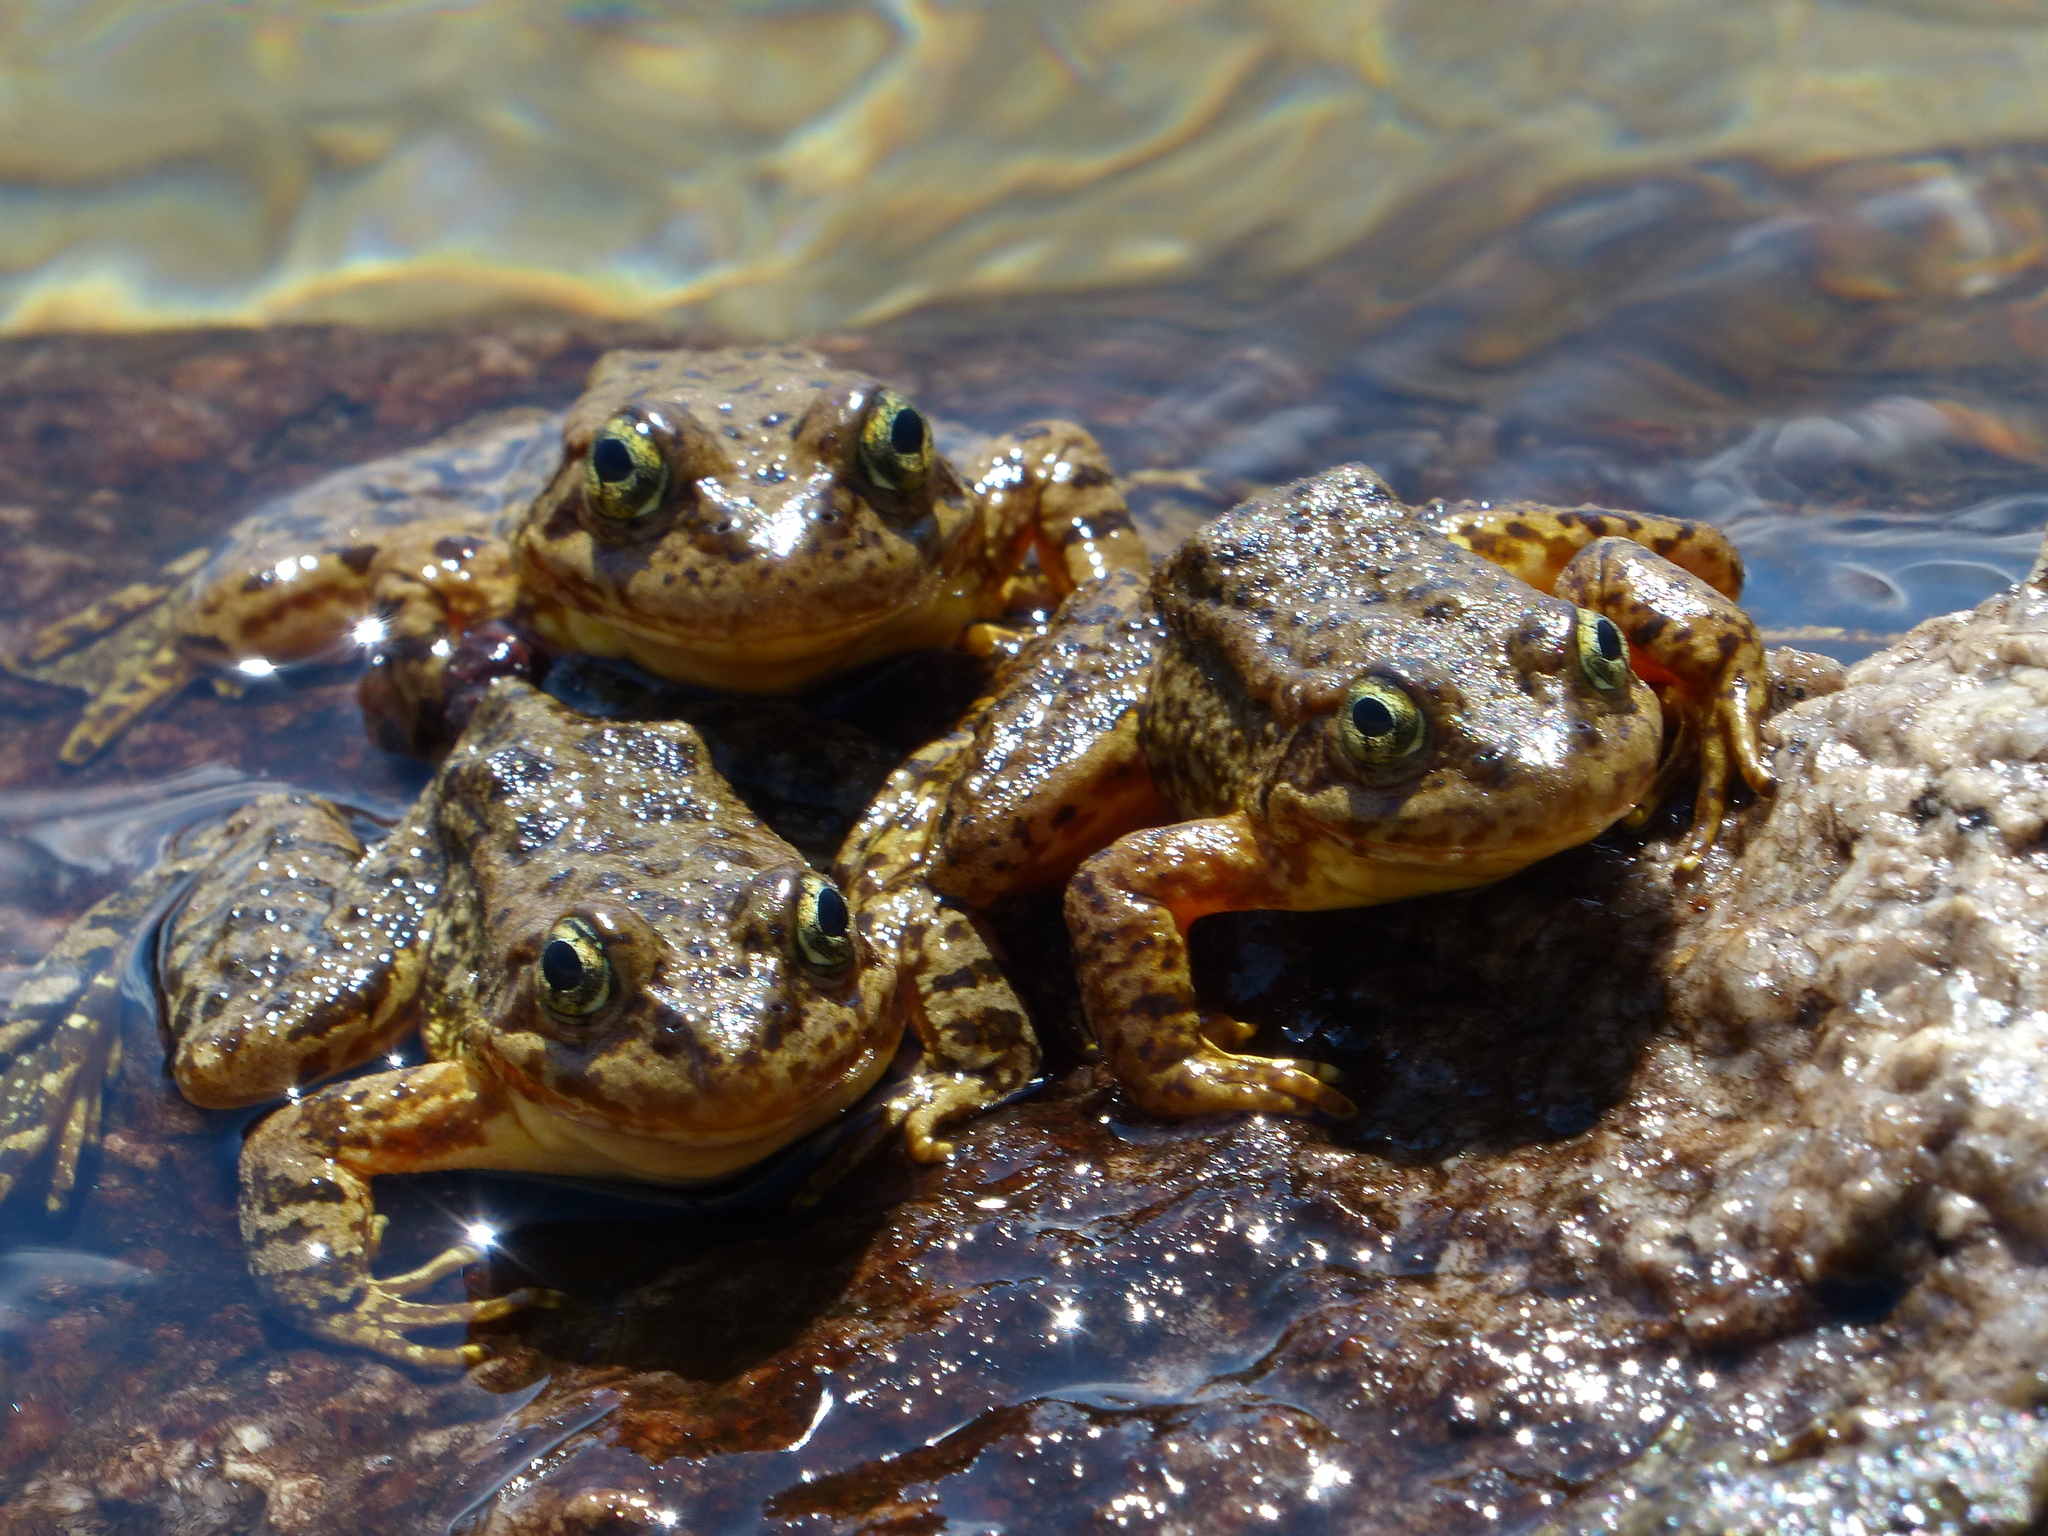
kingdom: Animalia
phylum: Chordata
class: Amphibia
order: Anura
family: Ranidae
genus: Rana
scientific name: Rana muscosa
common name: Mountain yellow-legged frog
